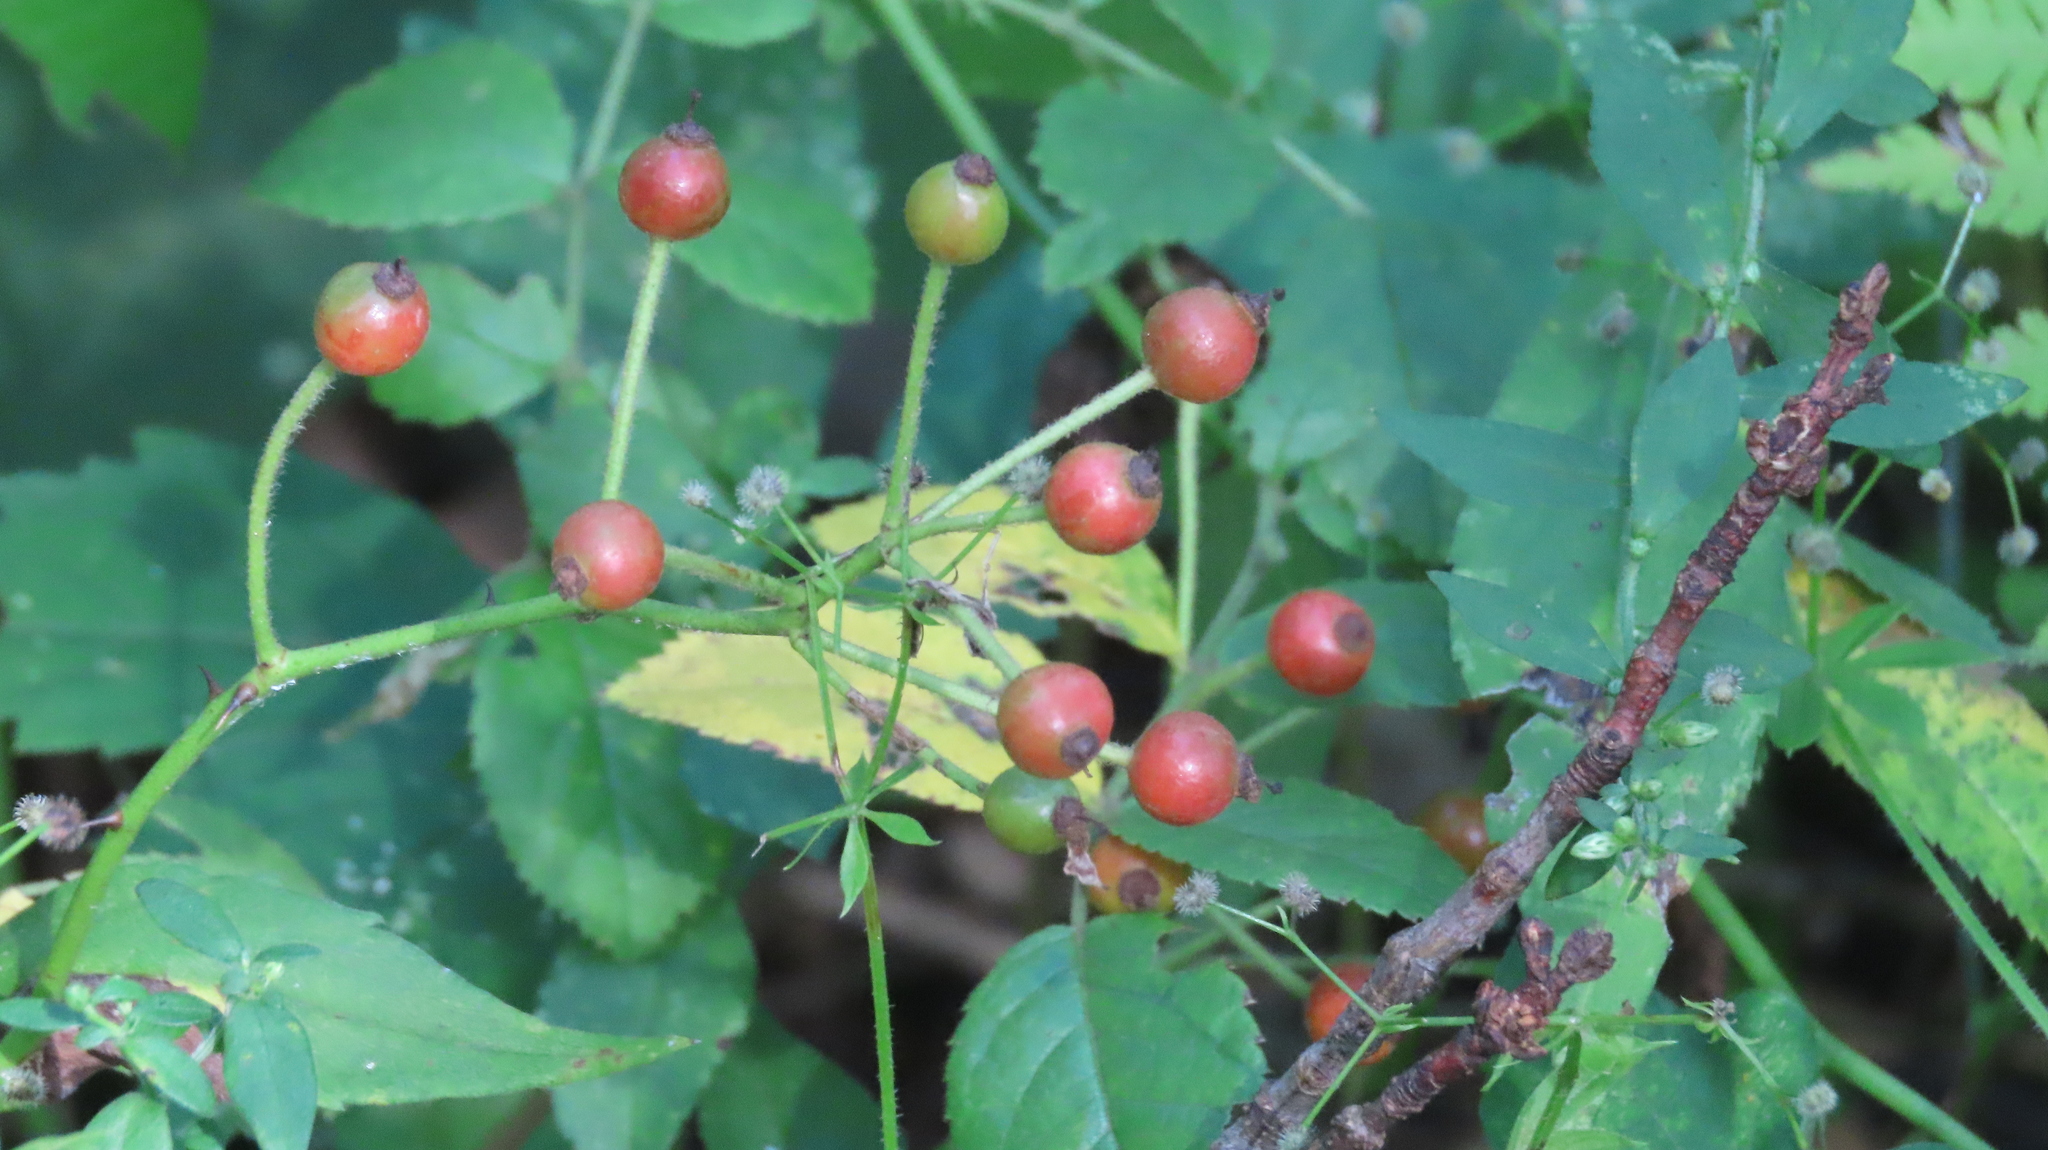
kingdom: Plantae
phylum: Tracheophyta
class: Magnoliopsida
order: Rosales
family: Rosaceae
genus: Rosa
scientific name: Rosa multiflora
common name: Multiflora rose
